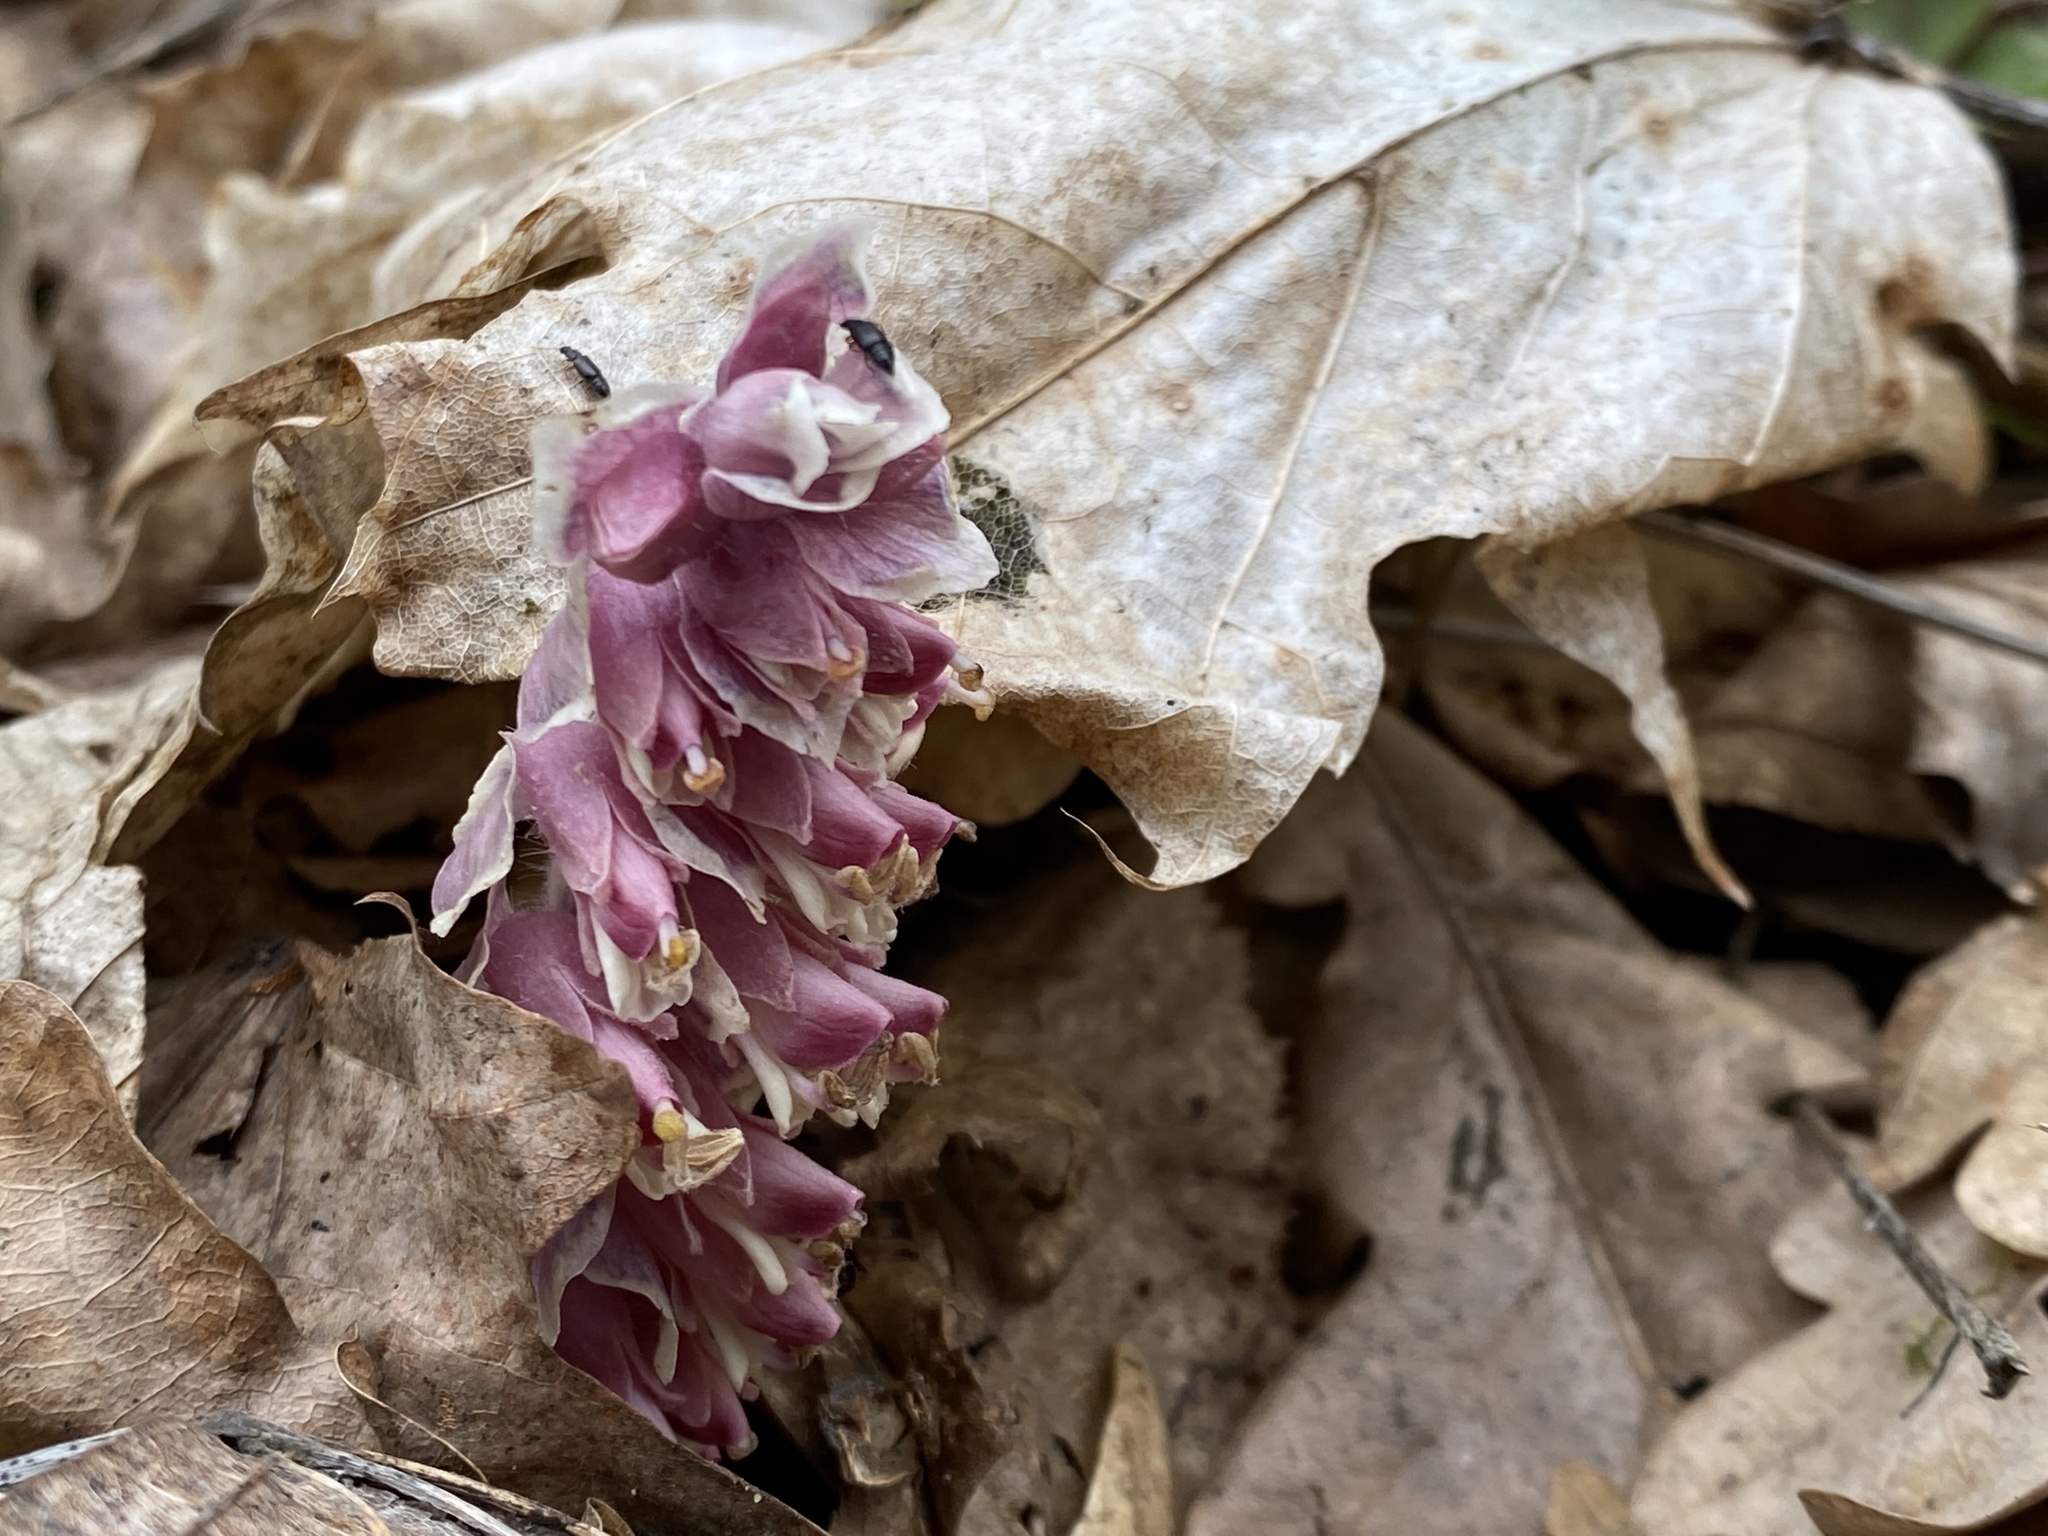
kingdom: Plantae
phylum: Tracheophyta
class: Magnoliopsida
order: Lamiales
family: Orobanchaceae
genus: Lathraea
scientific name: Lathraea squamaria
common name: Toothwort
